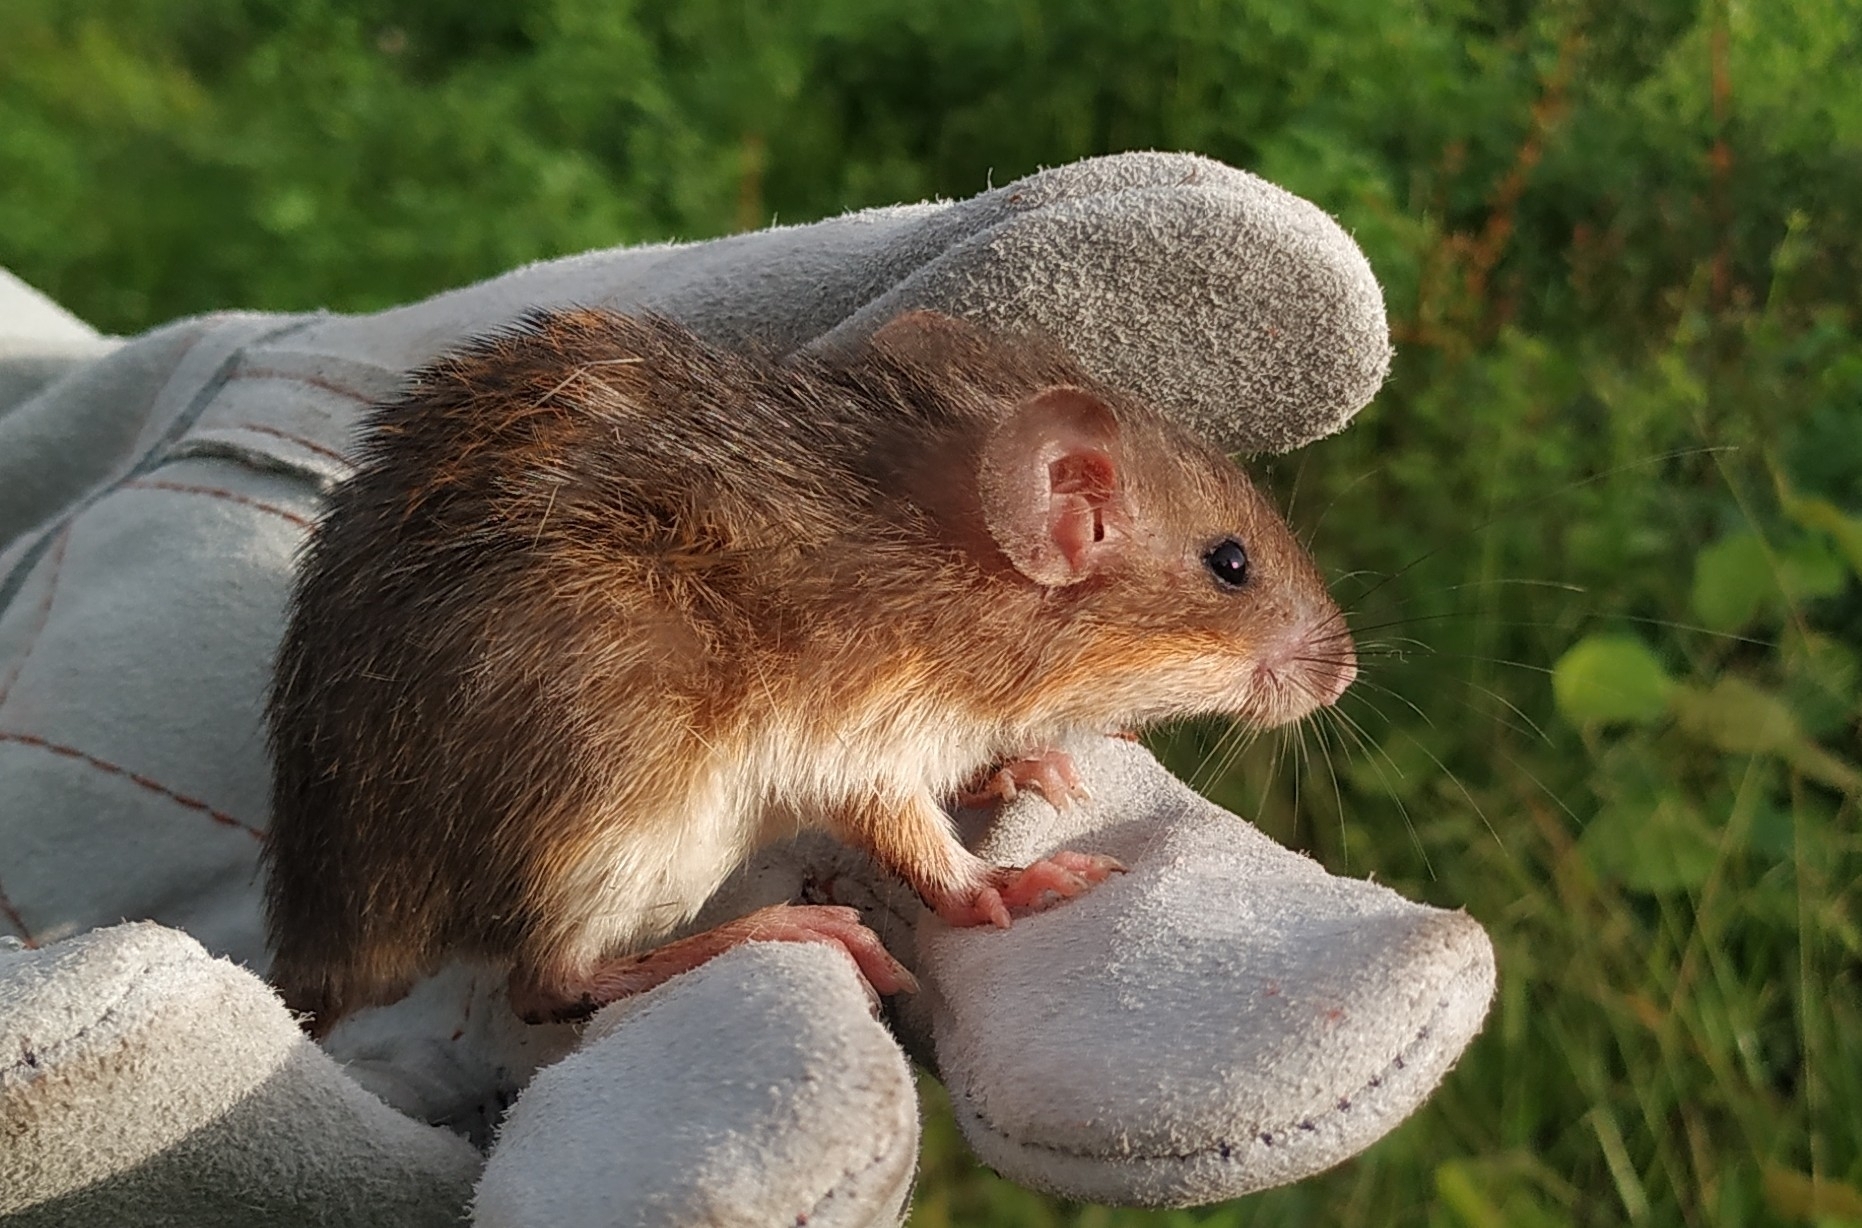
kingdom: Animalia
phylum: Chordata
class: Mammalia
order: Rodentia
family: Heteromyidae
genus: Heteromys
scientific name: Heteromys gaumeri
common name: Gaumer's spiny pocket mouse
